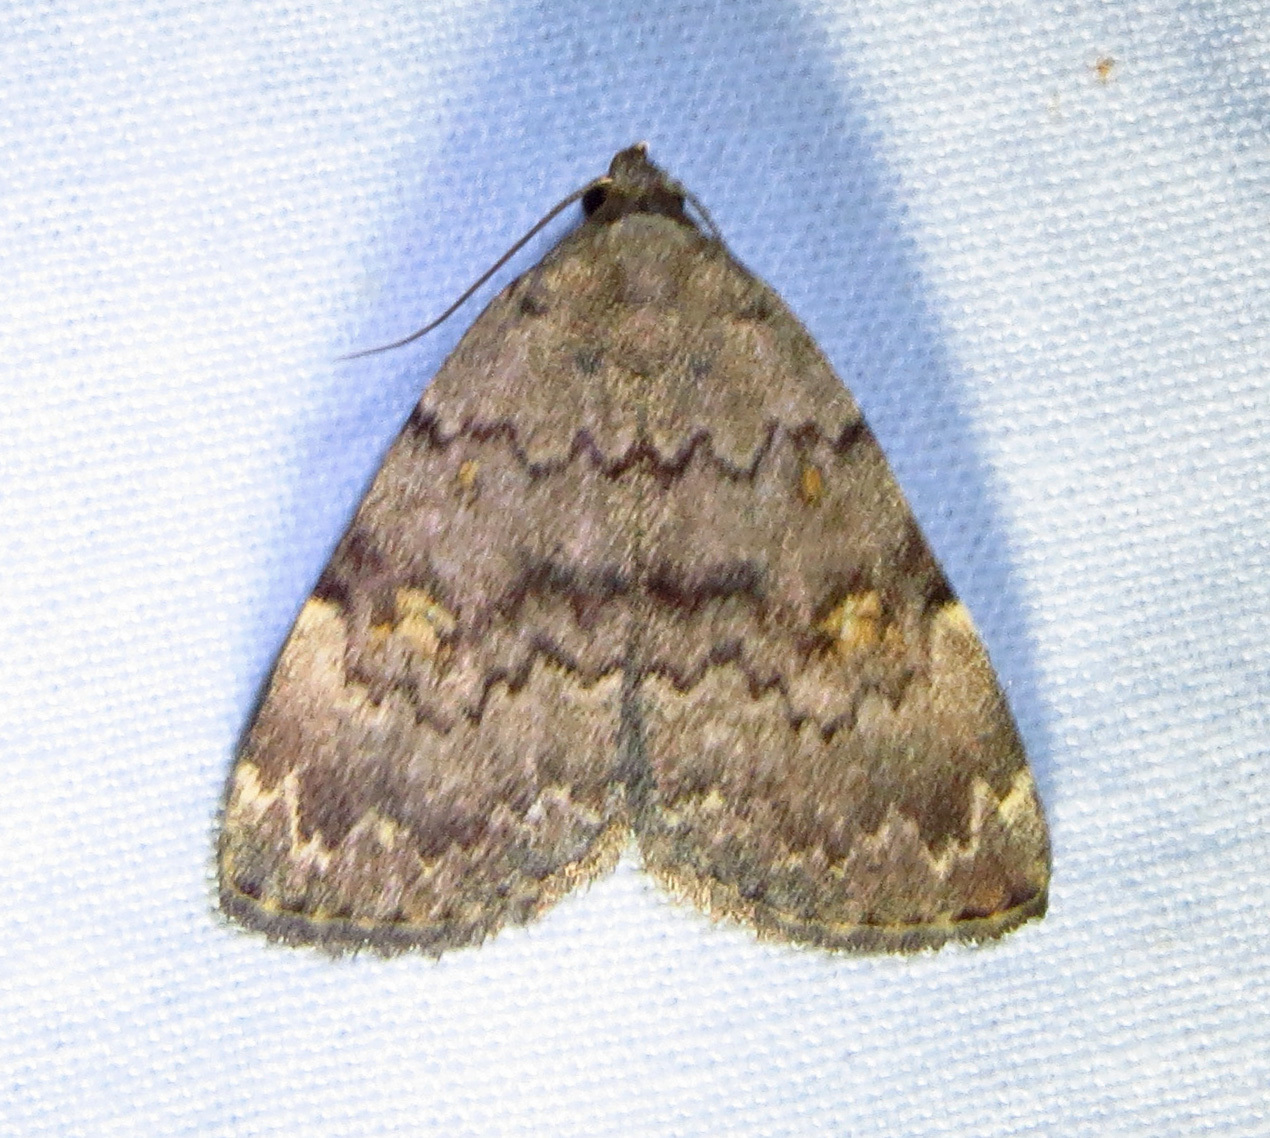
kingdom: Animalia
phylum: Arthropoda
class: Insecta
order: Lepidoptera
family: Erebidae
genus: Idia
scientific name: Idia aemula
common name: Common idia moth
